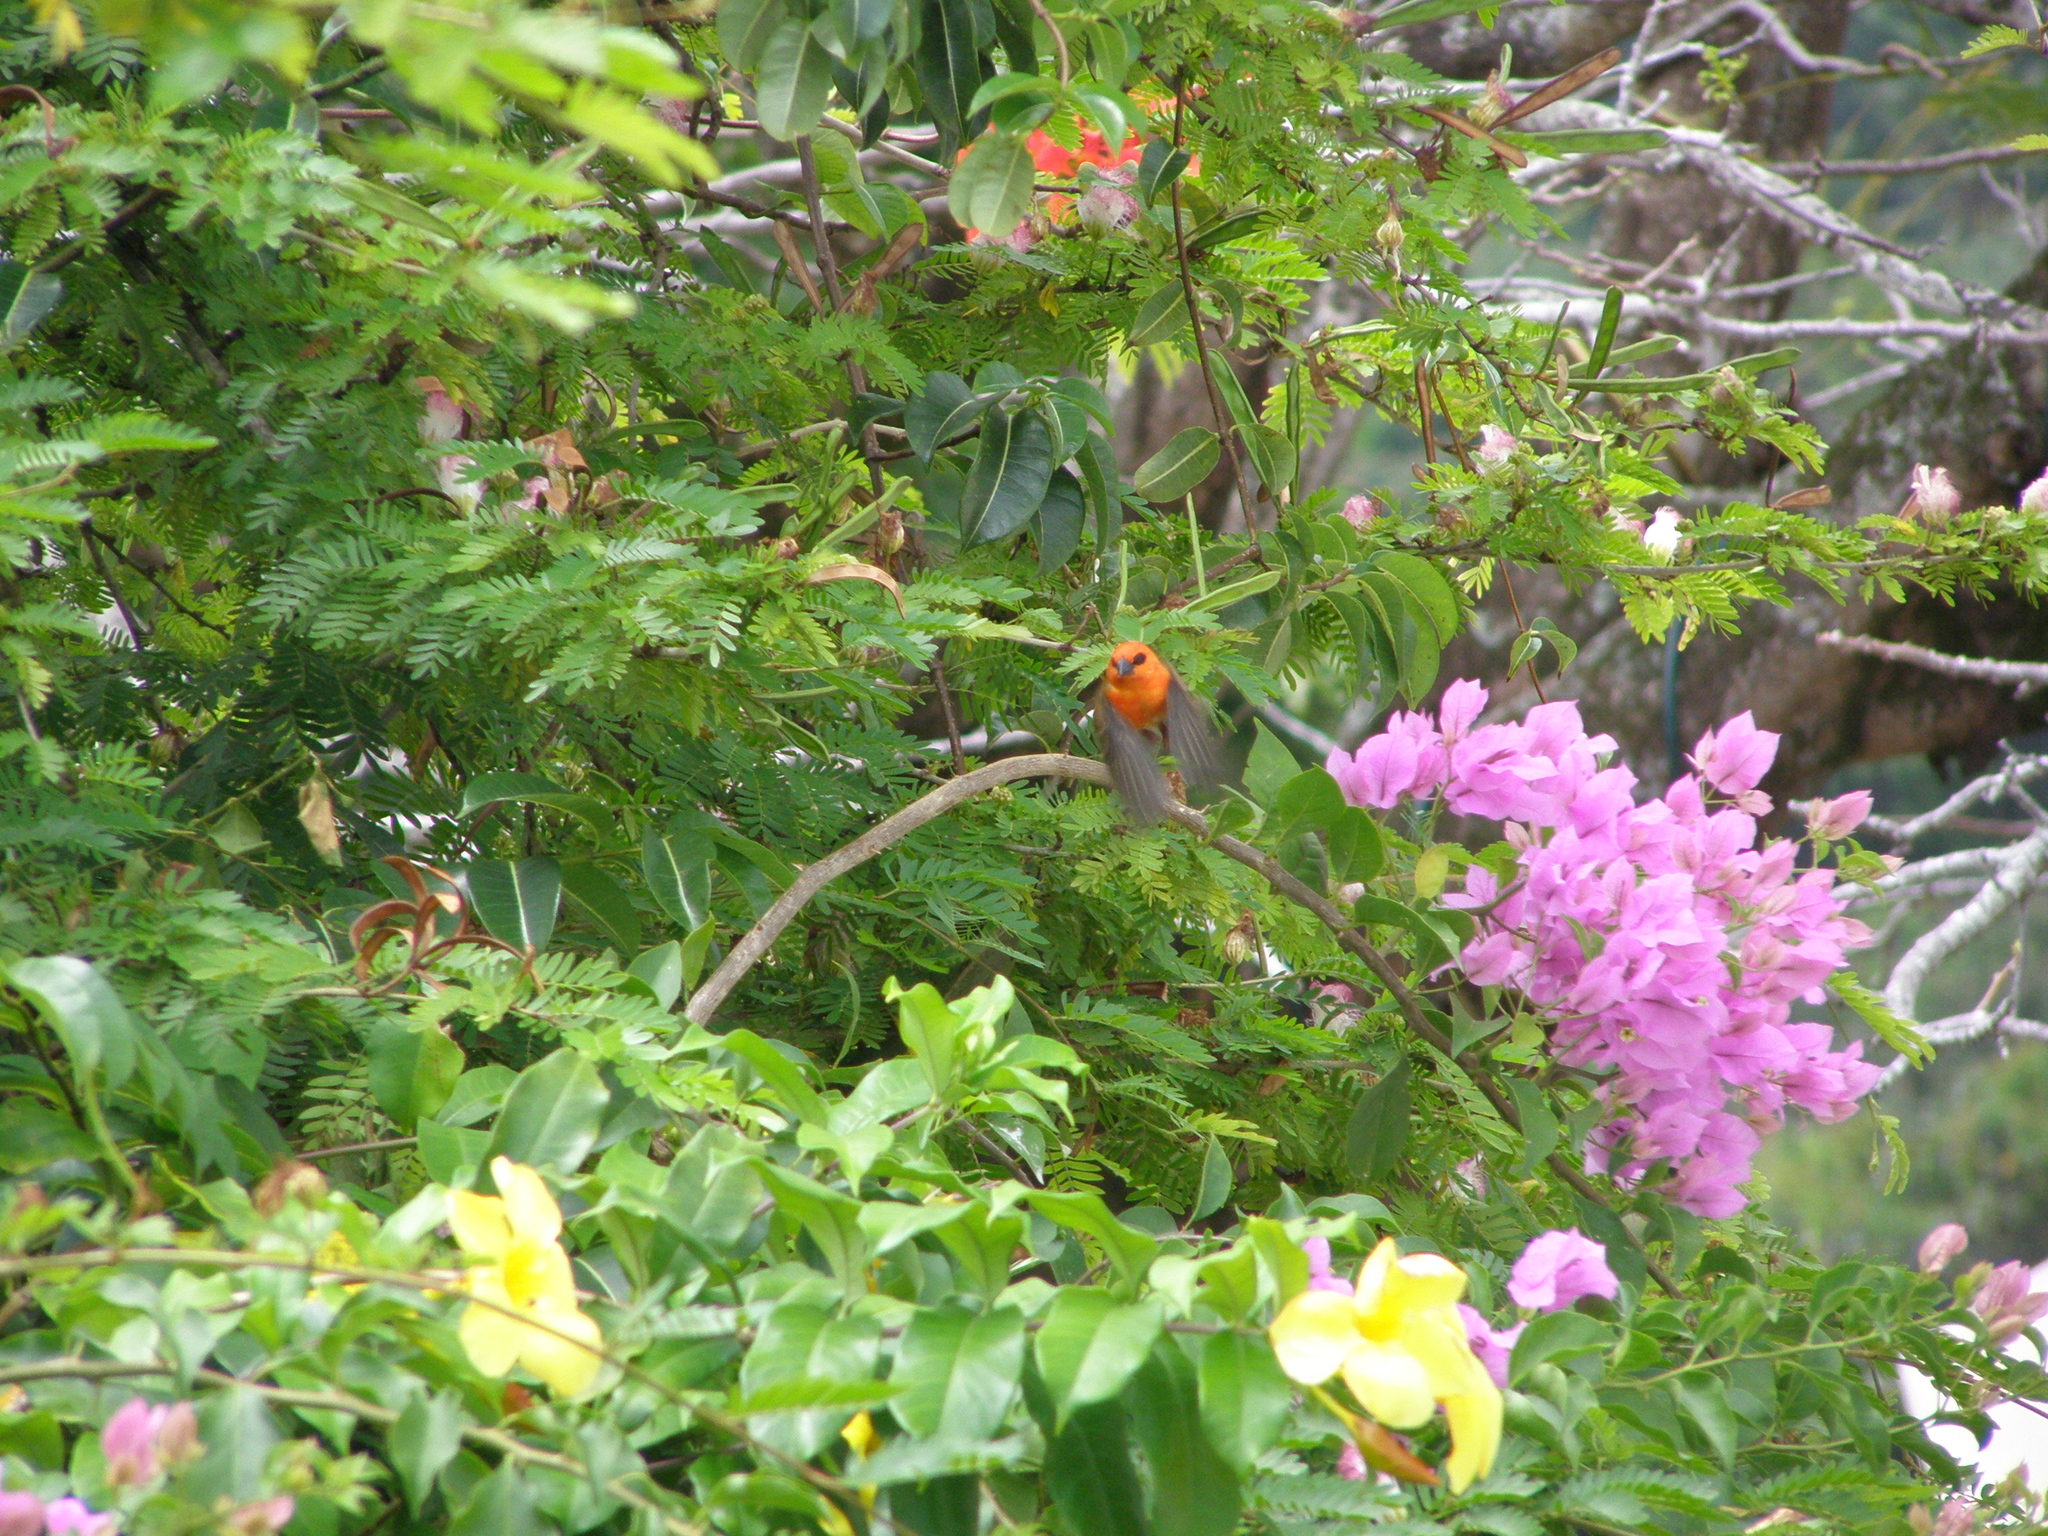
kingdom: Animalia
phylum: Chordata
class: Aves
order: Passeriformes
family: Ploceidae
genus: Foudia
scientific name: Foudia madagascariensis
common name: Red fody
